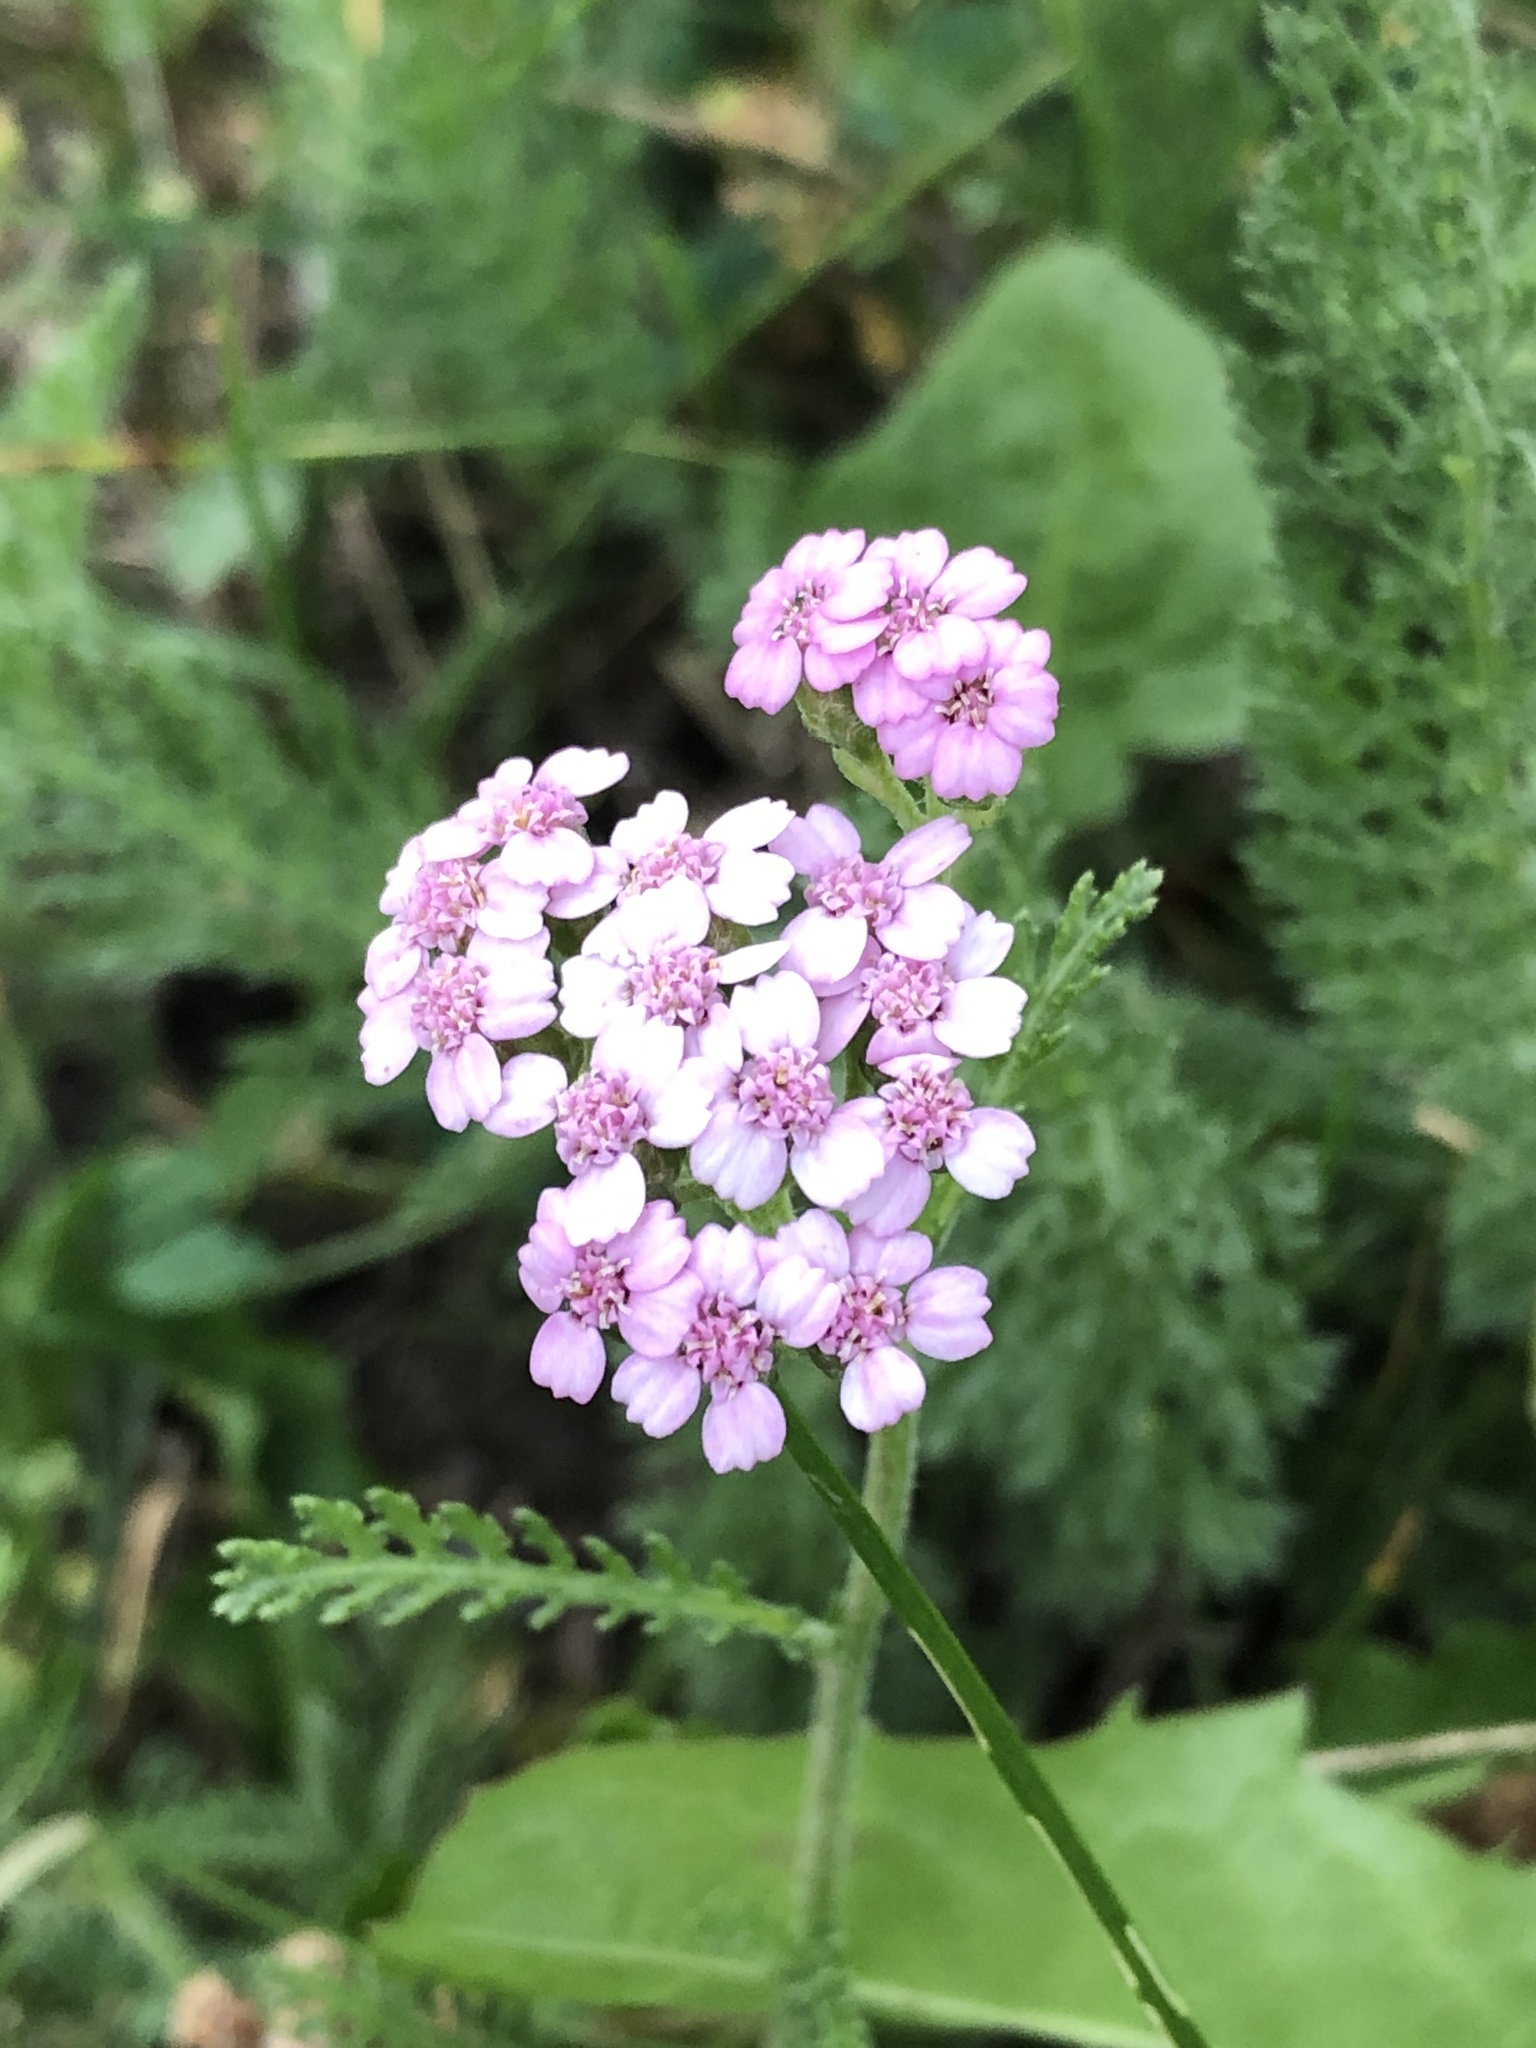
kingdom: Plantae
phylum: Tracheophyta
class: Magnoliopsida
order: Asterales
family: Asteraceae
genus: Achillea
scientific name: Achillea millefolium
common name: Yarrow
